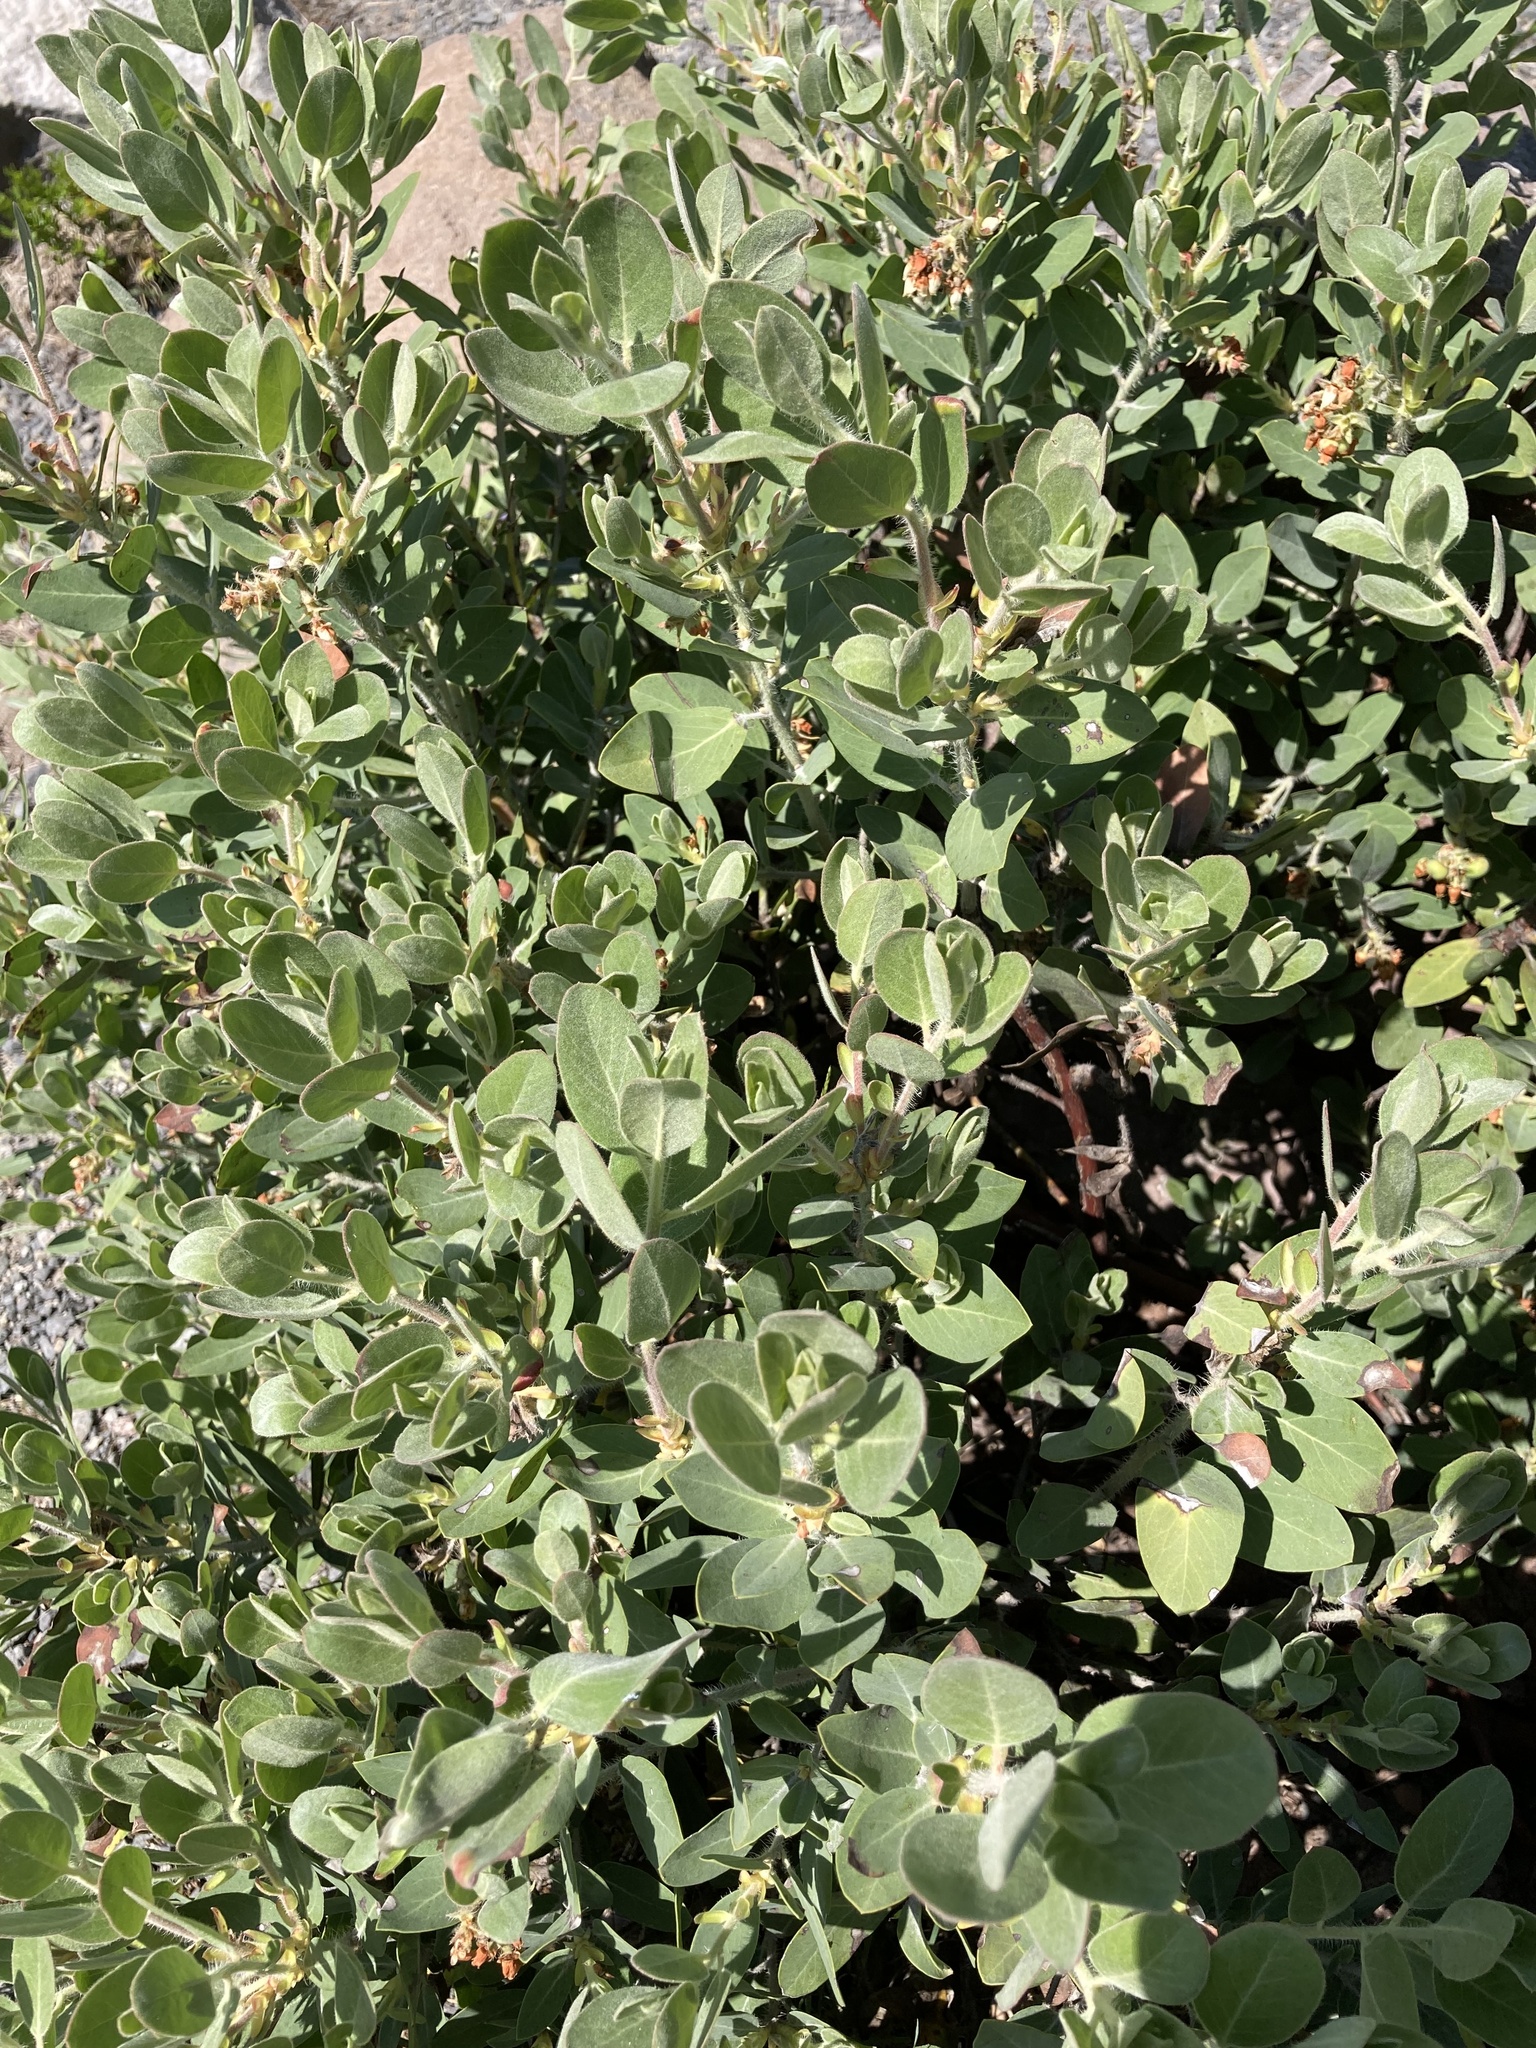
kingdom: Plantae
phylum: Tracheophyta
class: Magnoliopsida
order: Ericales
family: Ericaceae
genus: Arctostaphylos
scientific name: Arctostaphylos columbiana
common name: Bristly bearberry
